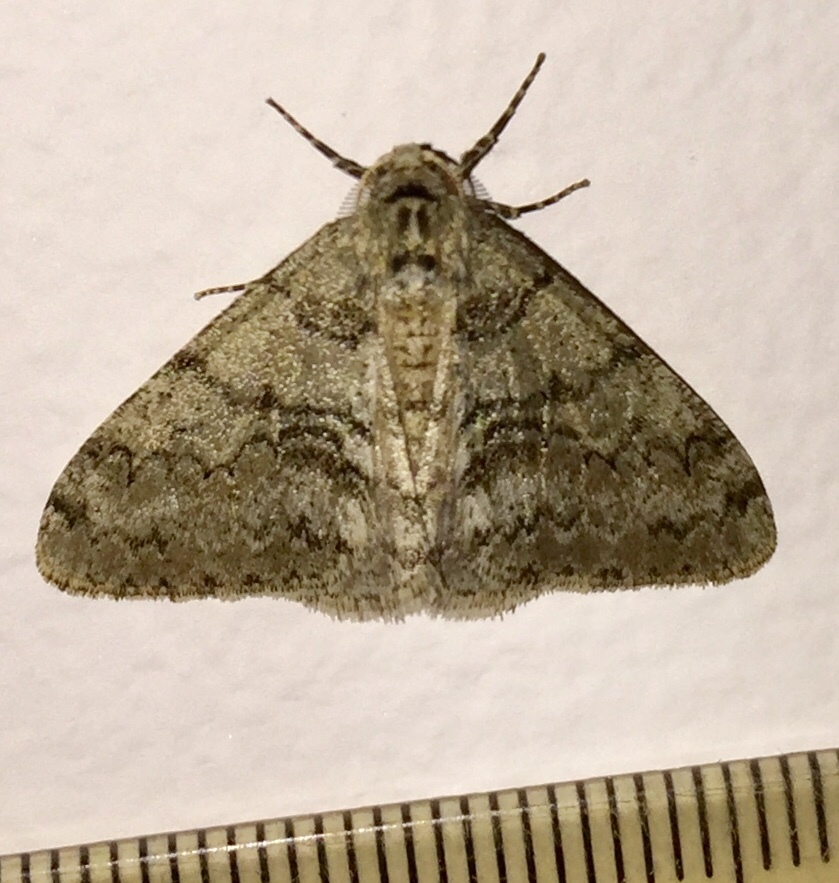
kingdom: Animalia
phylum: Arthropoda
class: Insecta
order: Lepidoptera
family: Geometridae
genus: Phigalia
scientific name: Phigalia denticulata
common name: Toothed phigalia
